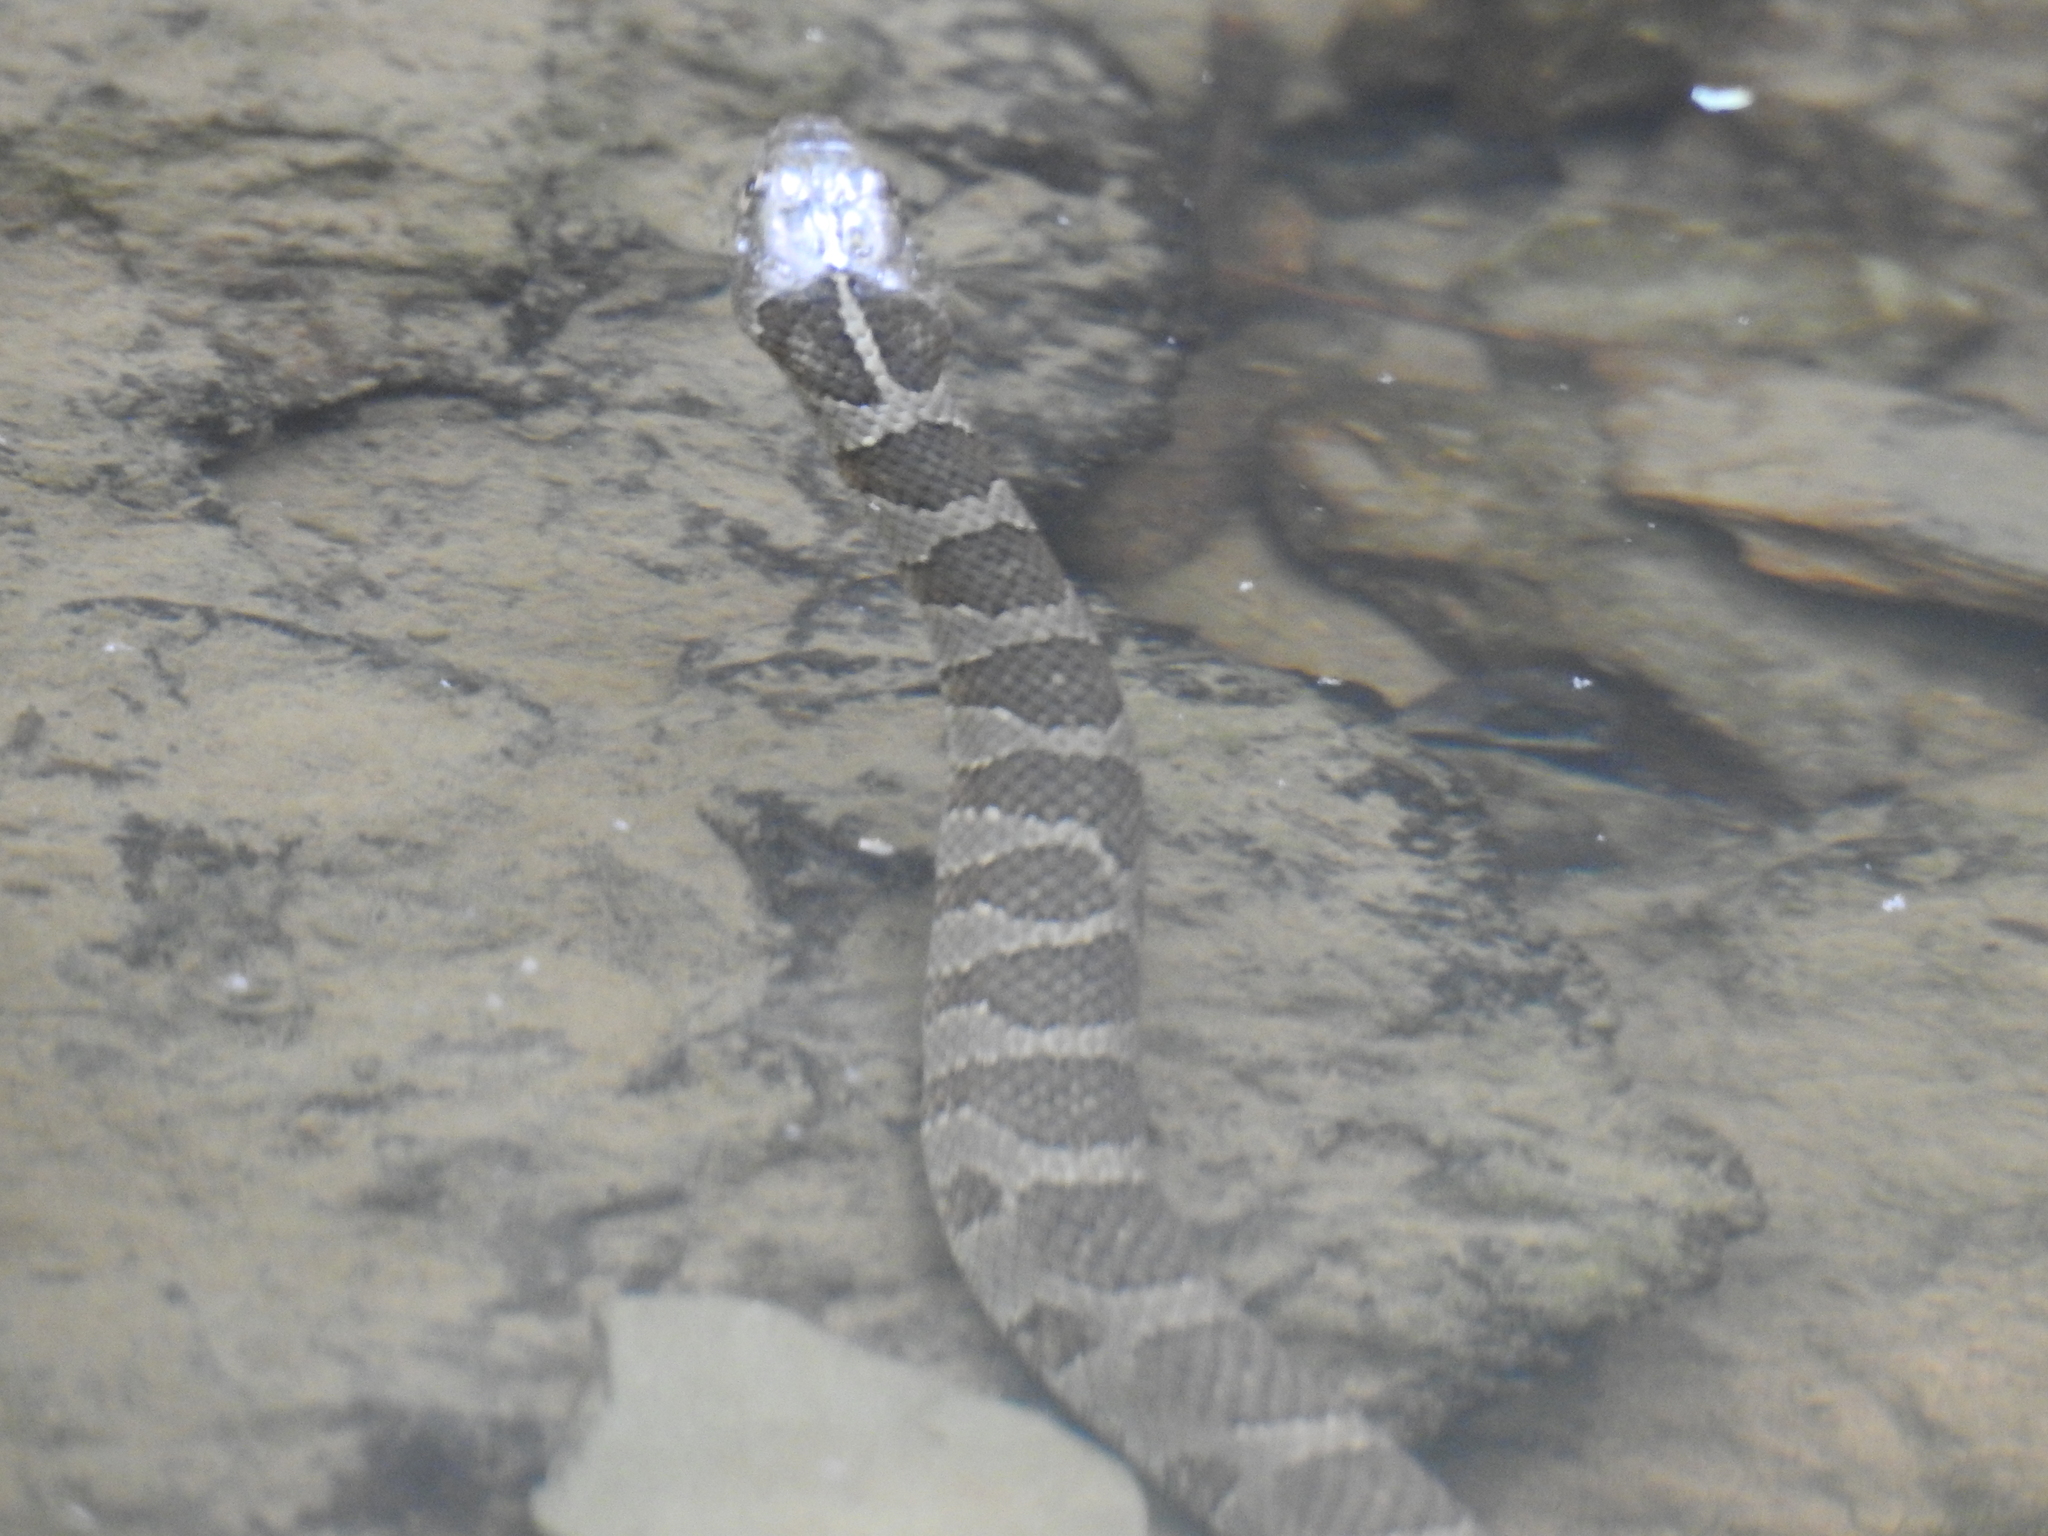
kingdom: Animalia
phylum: Chordata
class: Squamata
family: Colubridae
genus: Nerodia
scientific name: Nerodia sipedon
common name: Northern water snake
